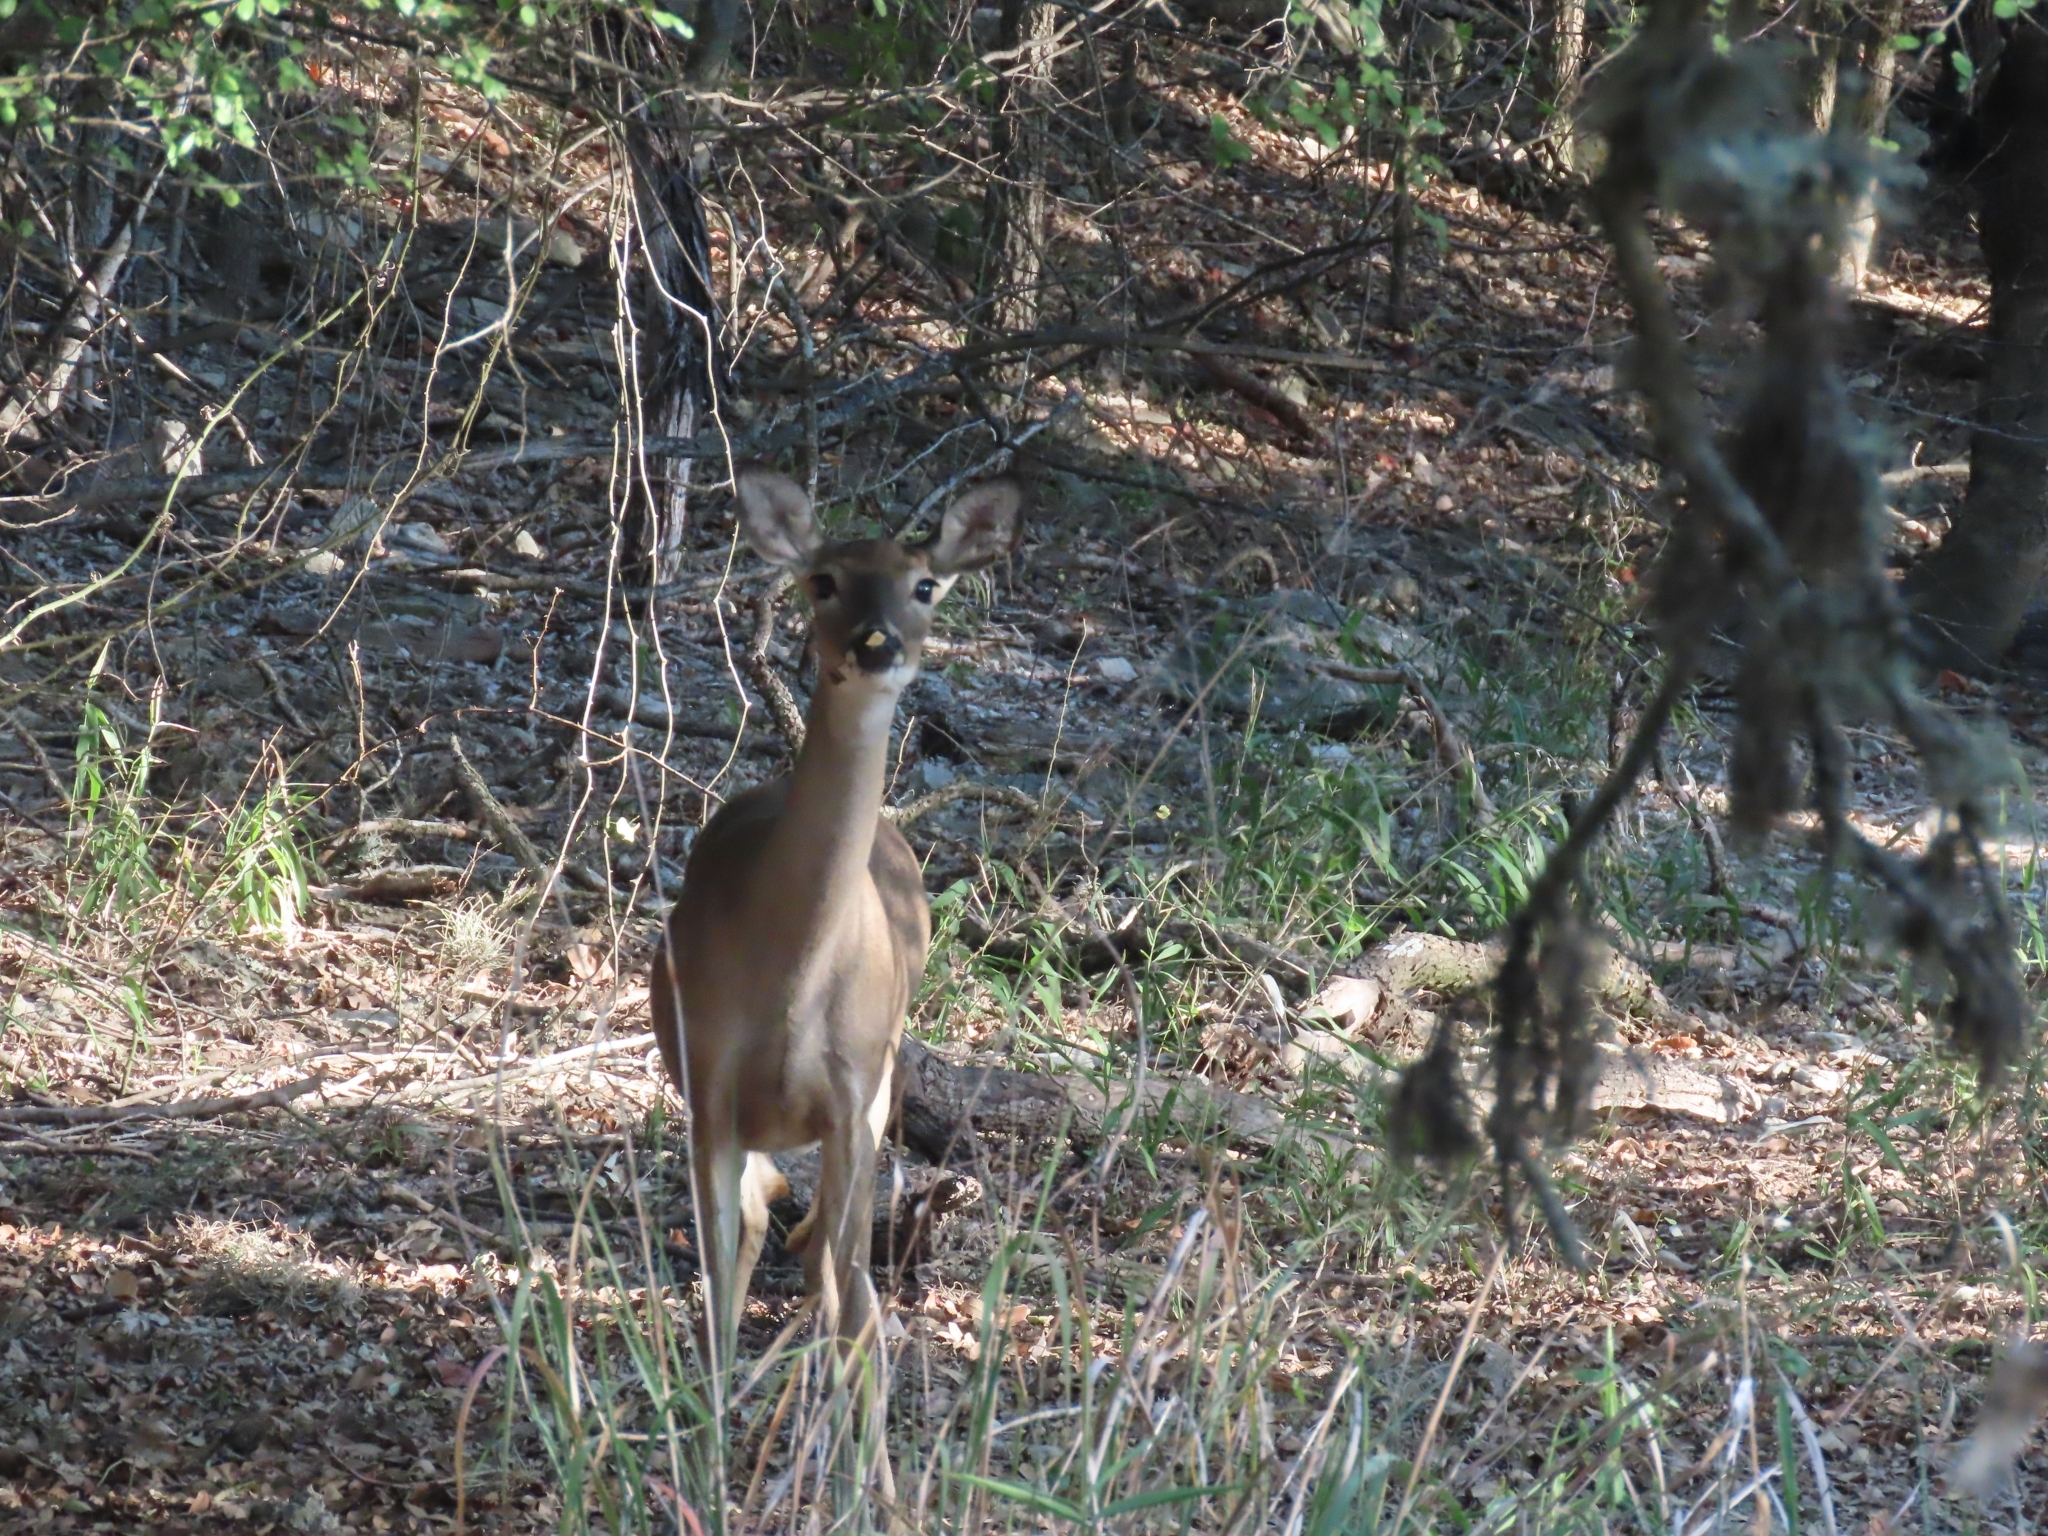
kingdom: Animalia
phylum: Chordata
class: Mammalia
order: Artiodactyla
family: Cervidae
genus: Odocoileus
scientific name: Odocoileus virginianus
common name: White-tailed deer
